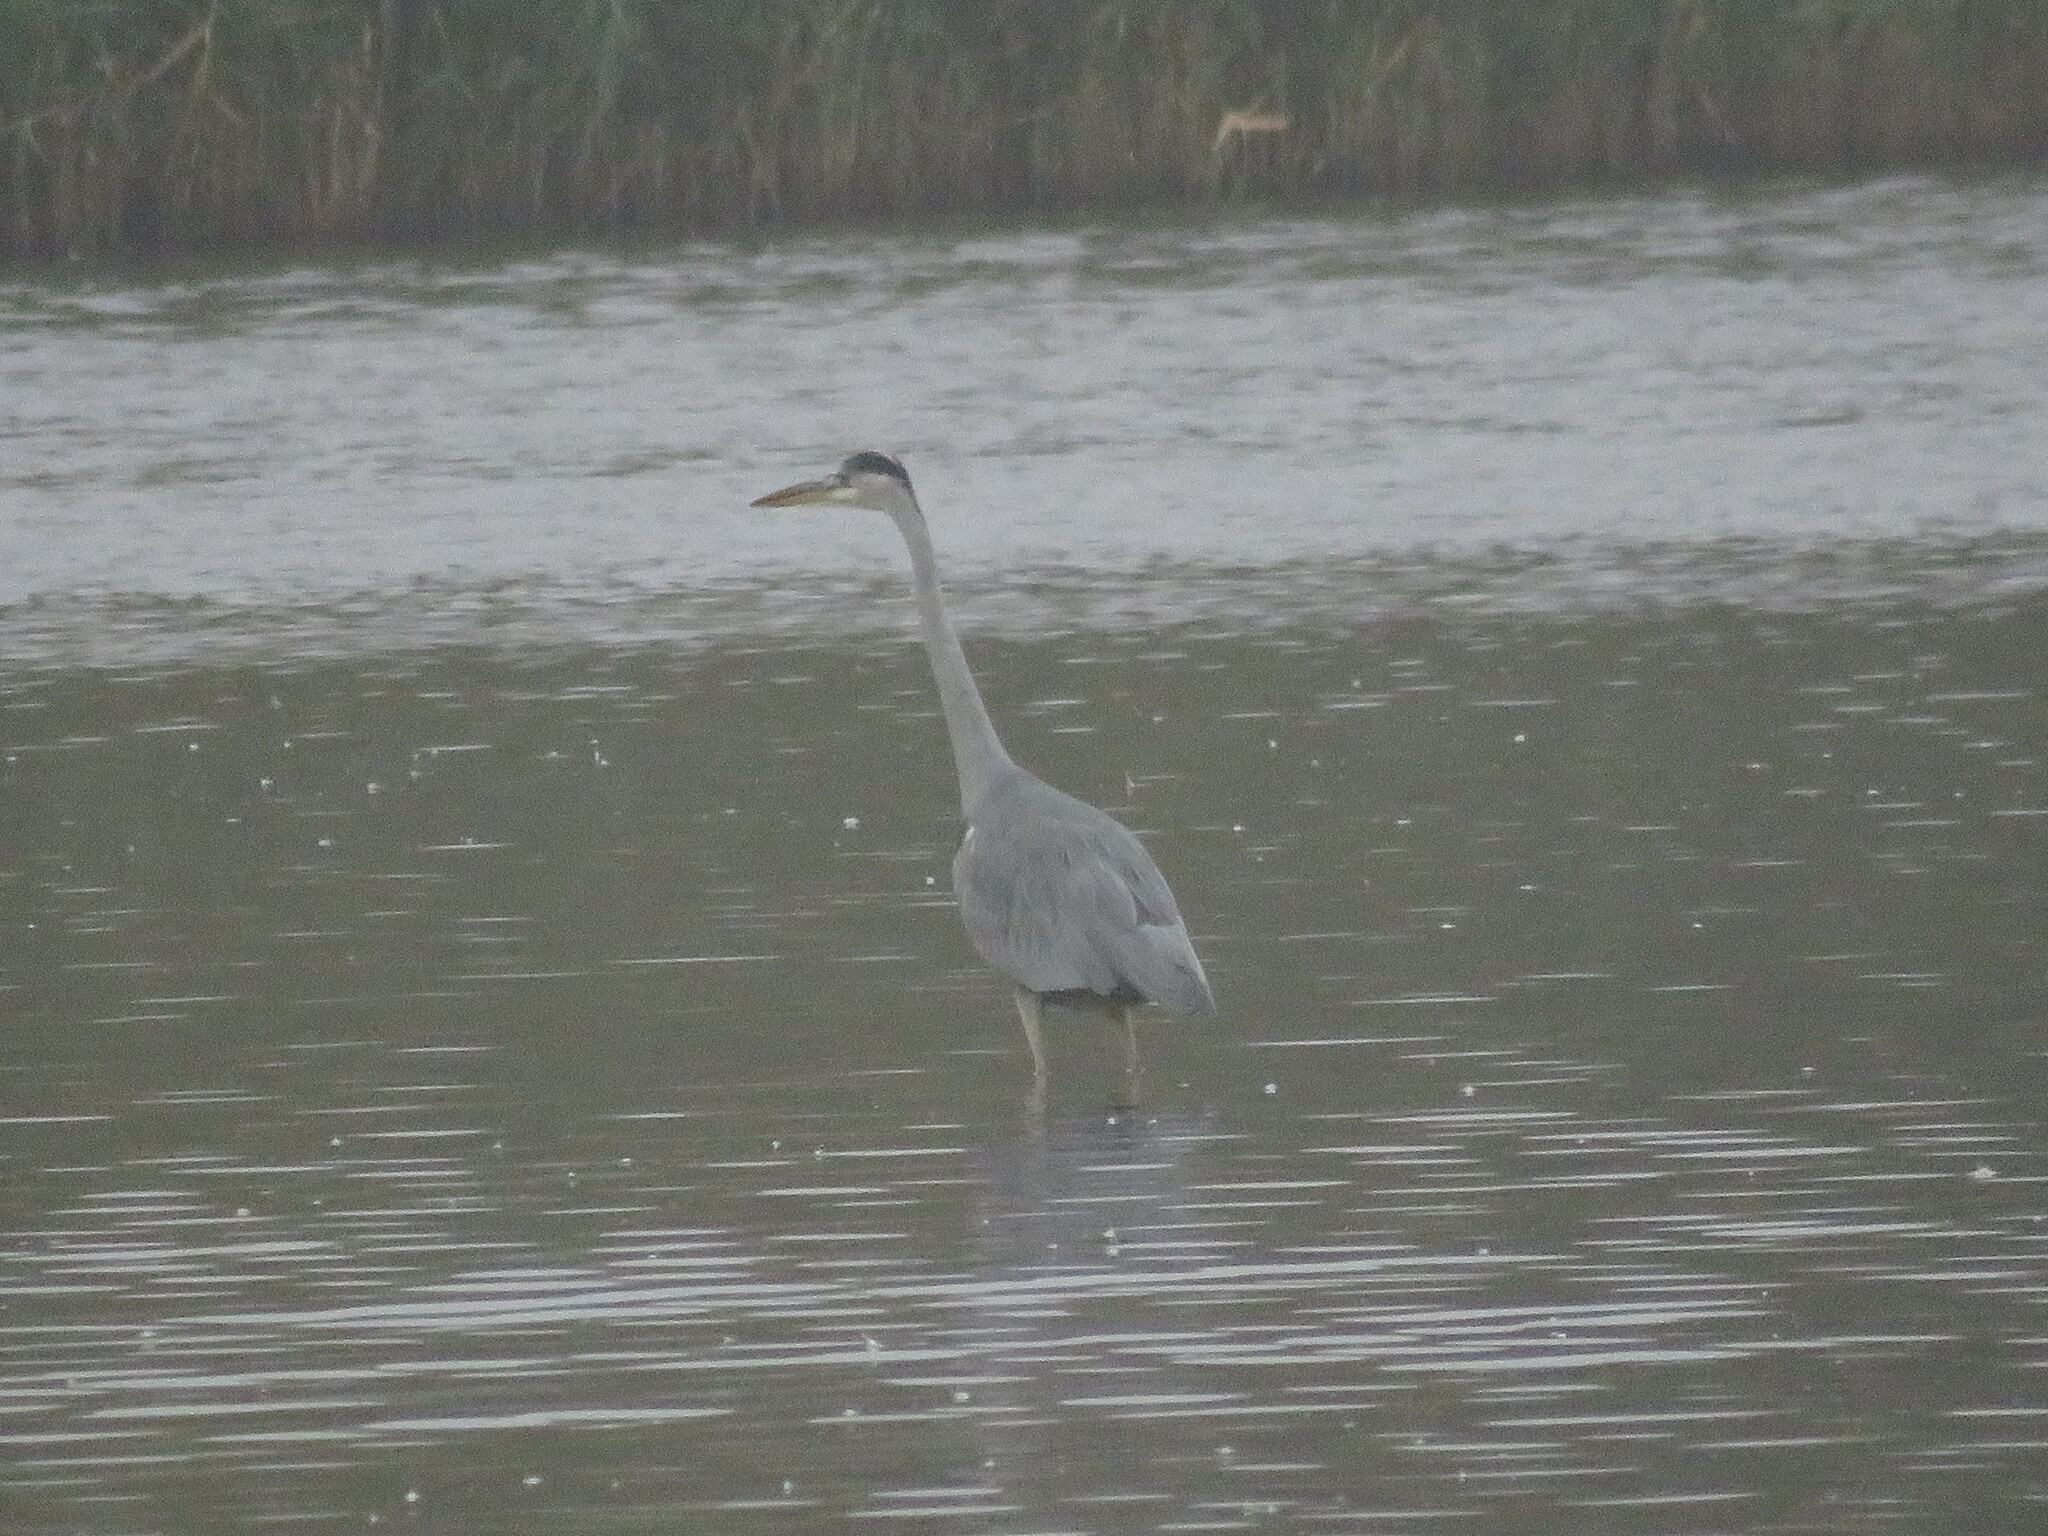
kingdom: Animalia
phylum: Chordata
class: Aves
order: Pelecaniformes
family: Ardeidae
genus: Ardea
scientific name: Ardea cinerea
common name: Grey heron
